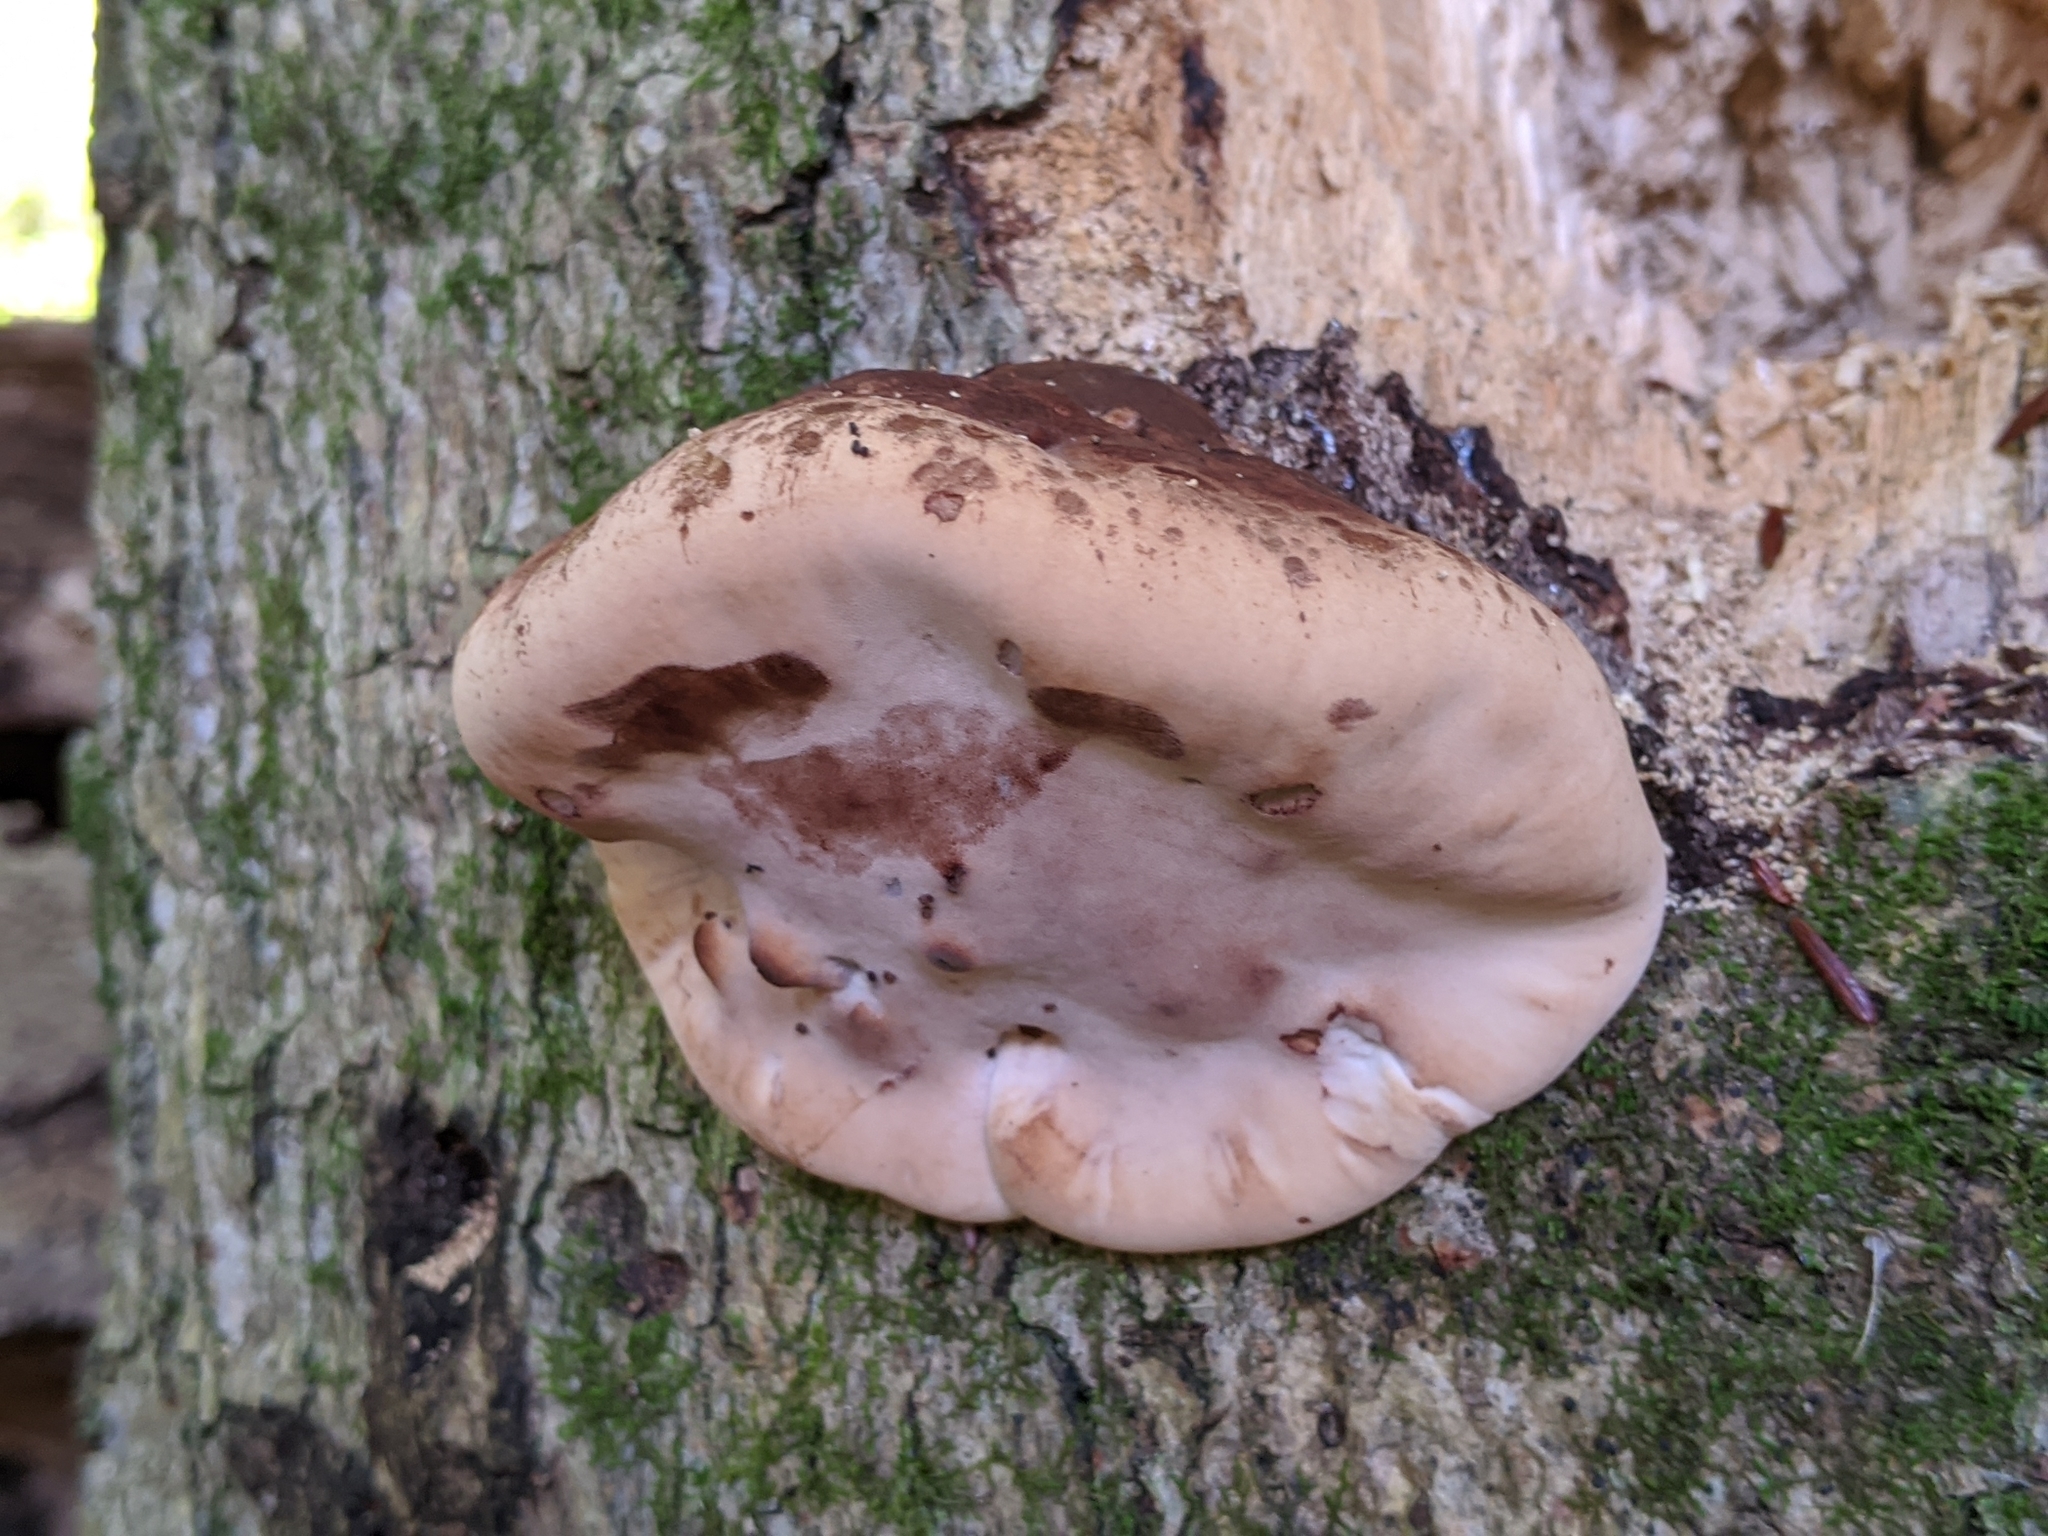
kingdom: Fungi
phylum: Basidiomycota
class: Agaricomycetes
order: Polyporales
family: Ischnodermataceae
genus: Ischnoderma
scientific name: Ischnoderma resinosum
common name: Resinous polypore
